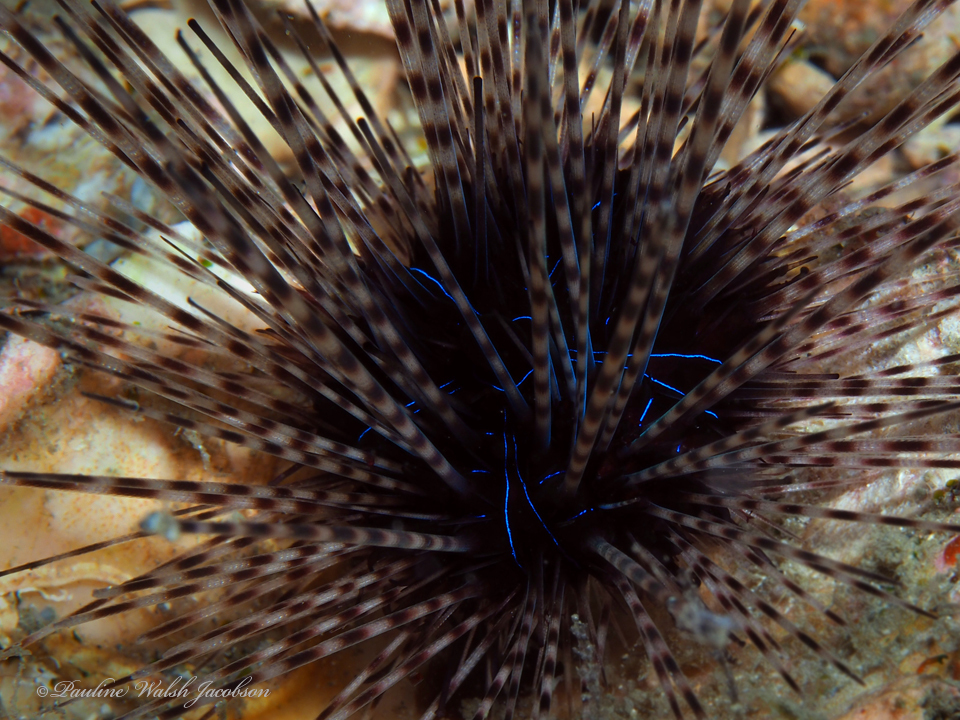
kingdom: Animalia
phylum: Echinodermata
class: Echinoidea
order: Diadematoida
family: Diadematidae
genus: Diadema
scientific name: Diadema antillarum
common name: Spiny urchin
